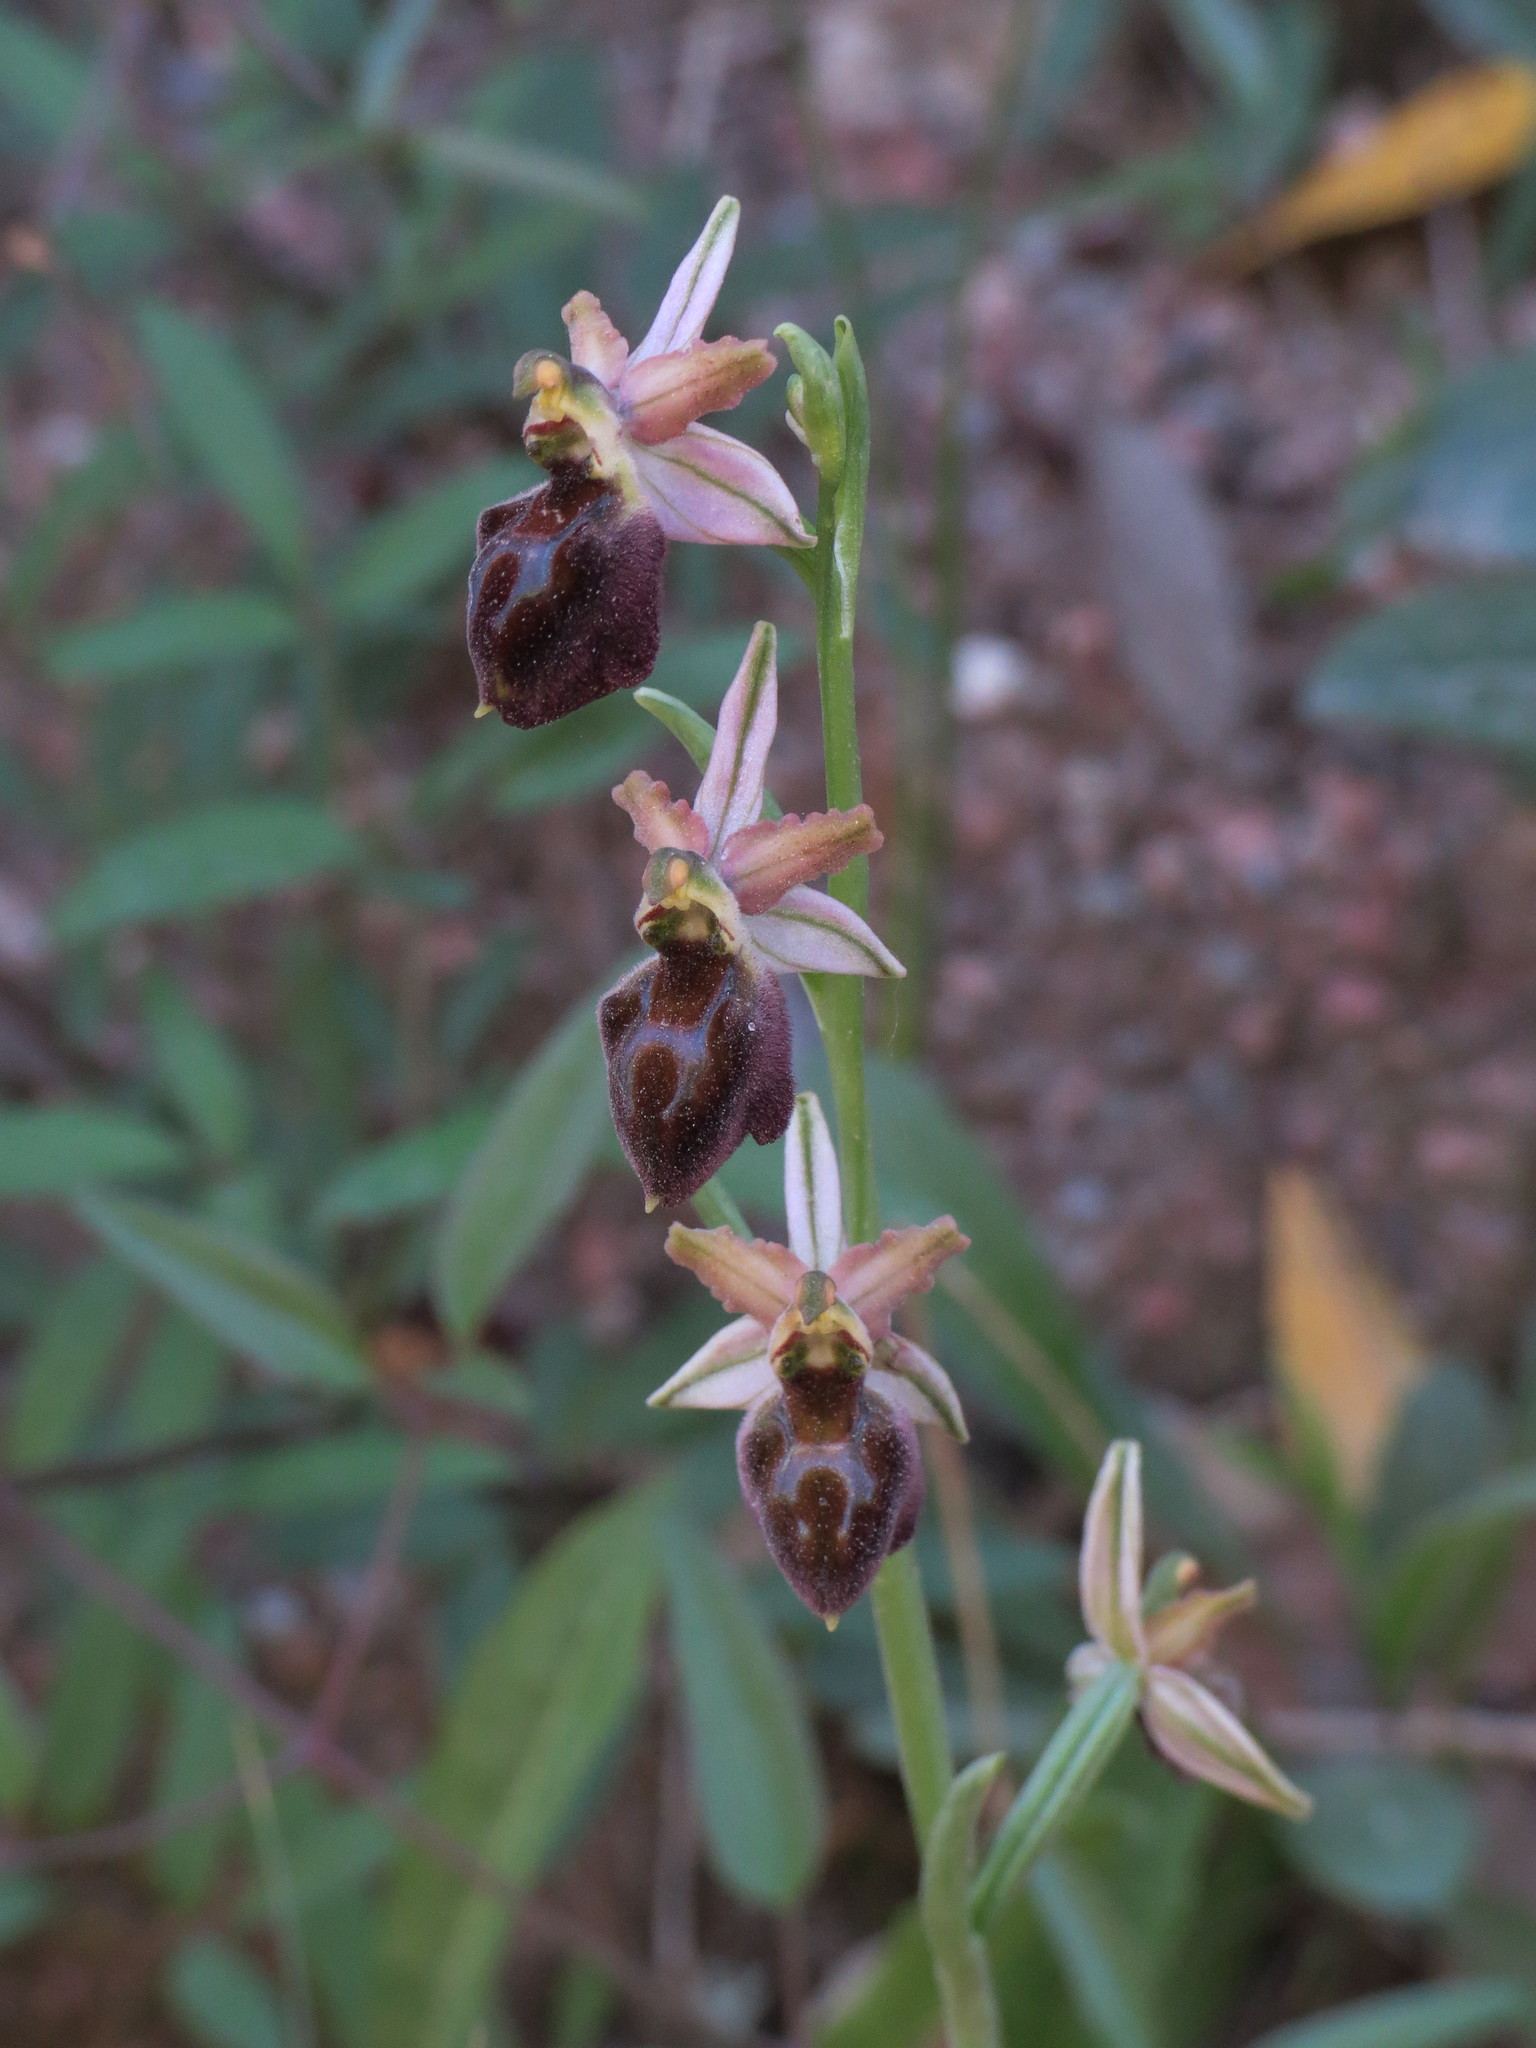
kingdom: Plantae
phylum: Tracheophyta
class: Liliopsida
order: Asparagales
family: Orchidaceae
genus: Ophrys
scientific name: Ophrys arachnitiformis
